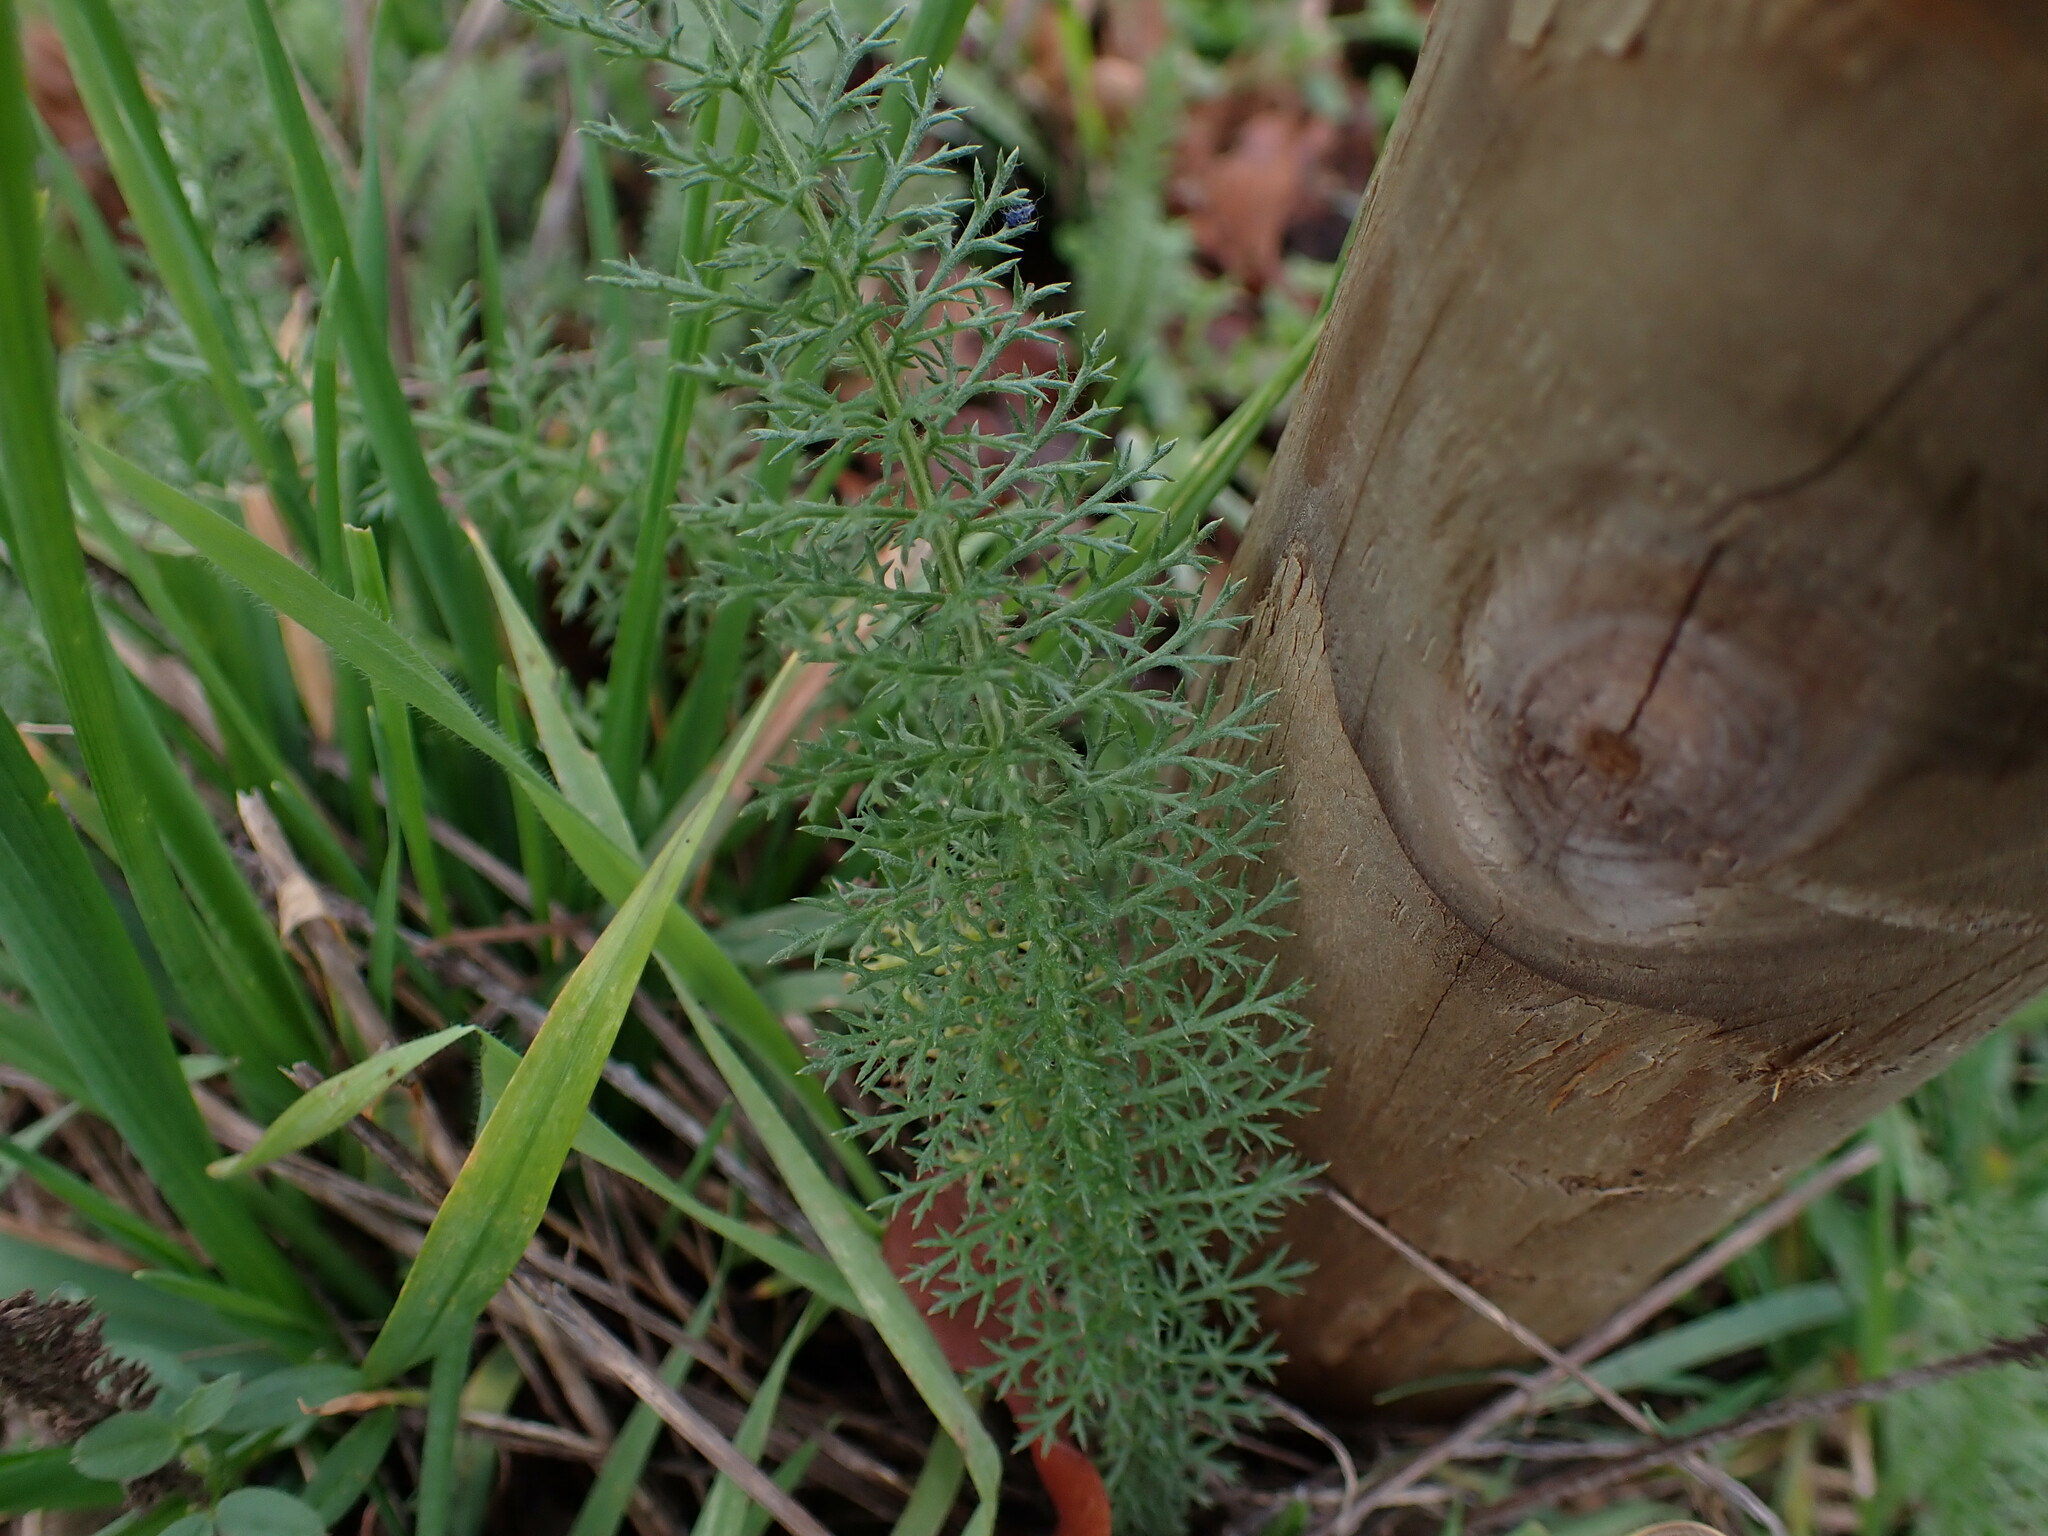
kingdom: Plantae
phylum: Tracheophyta
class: Magnoliopsida
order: Asterales
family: Asteraceae
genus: Achillea
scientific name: Achillea millefolium
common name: Yarrow
